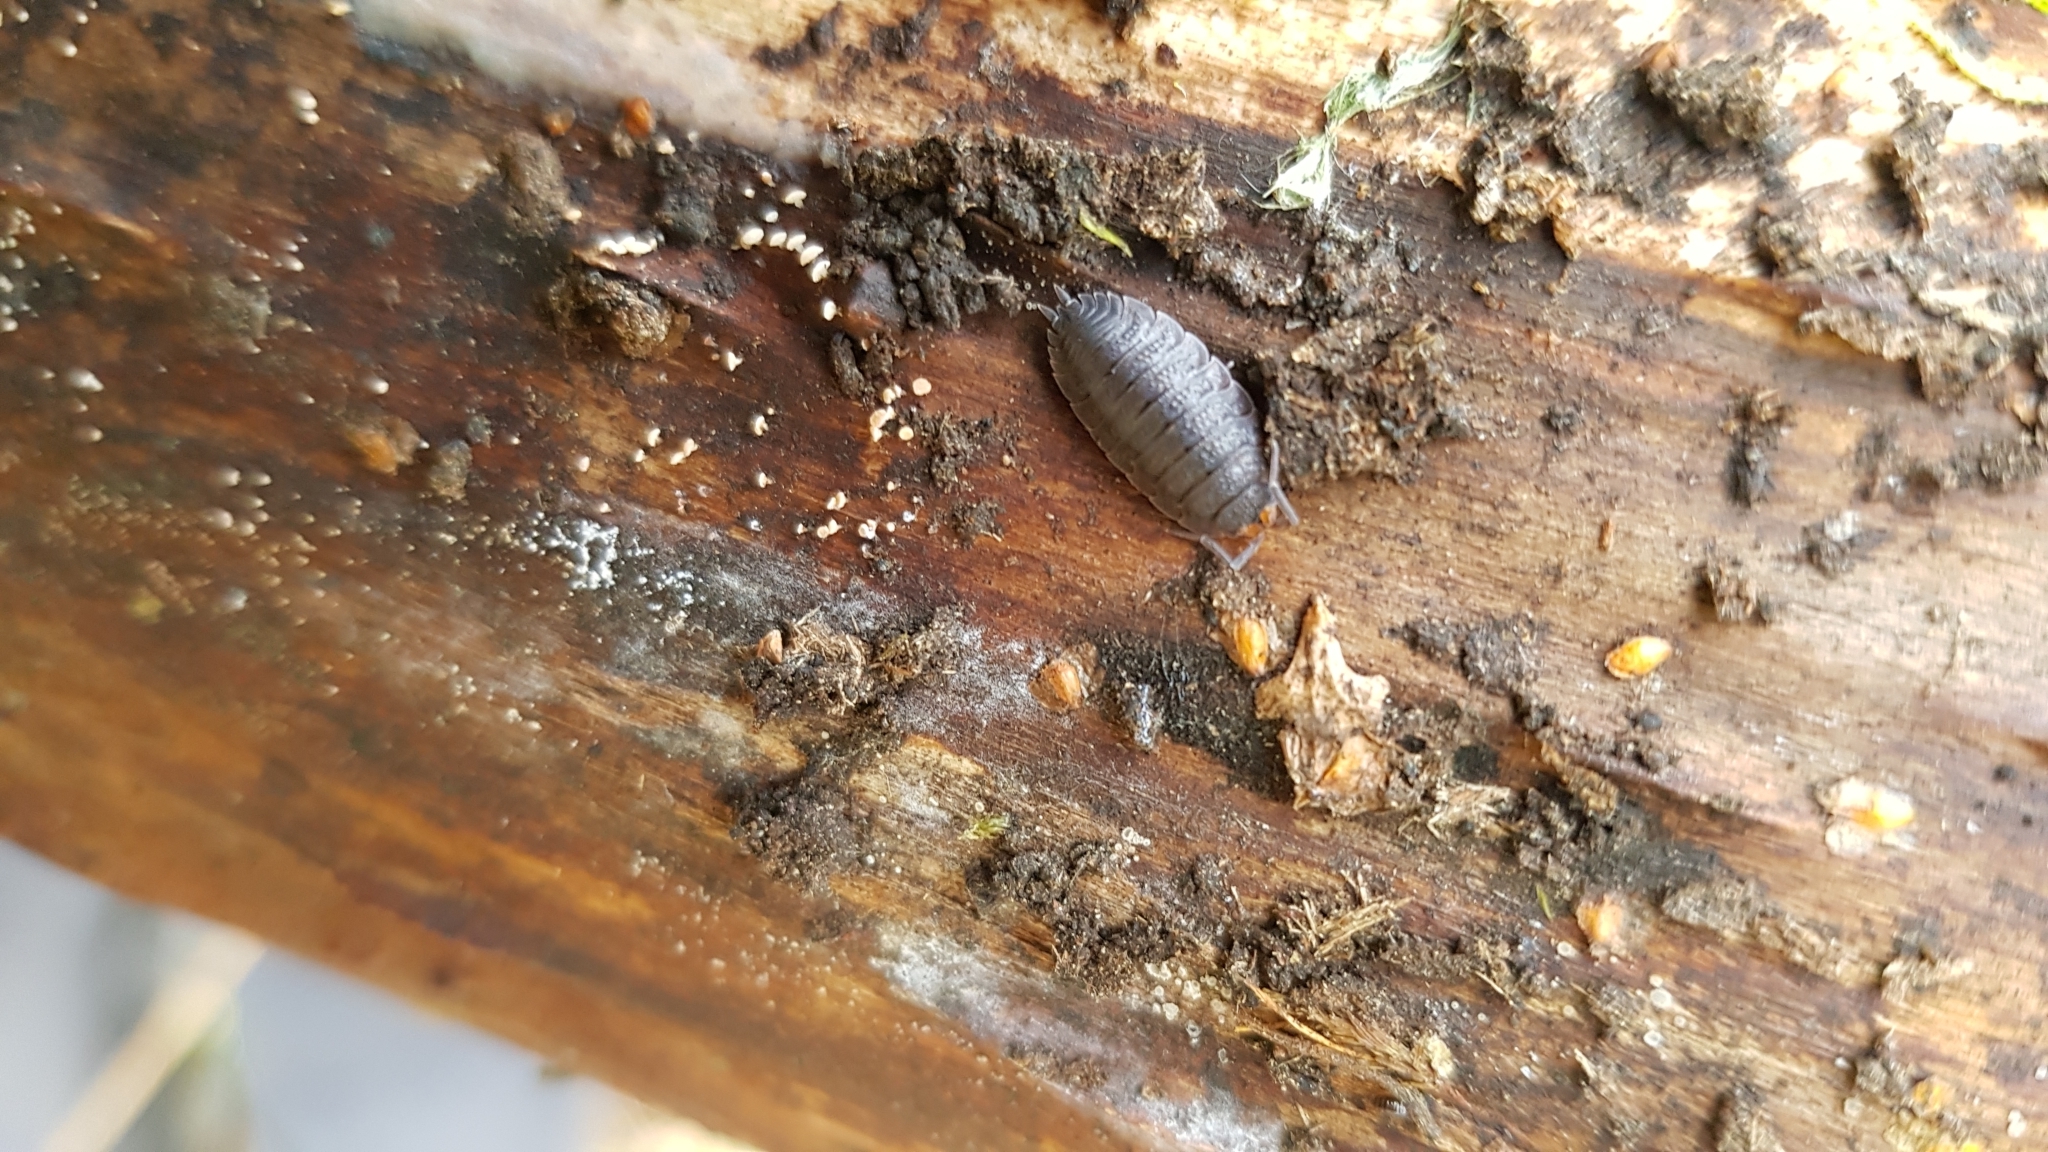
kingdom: Animalia
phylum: Arthropoda
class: Malacostraca
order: Isopoda
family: Porcellionidae
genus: Porcellio
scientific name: Porcellio scaber
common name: Common rough woodlouse
